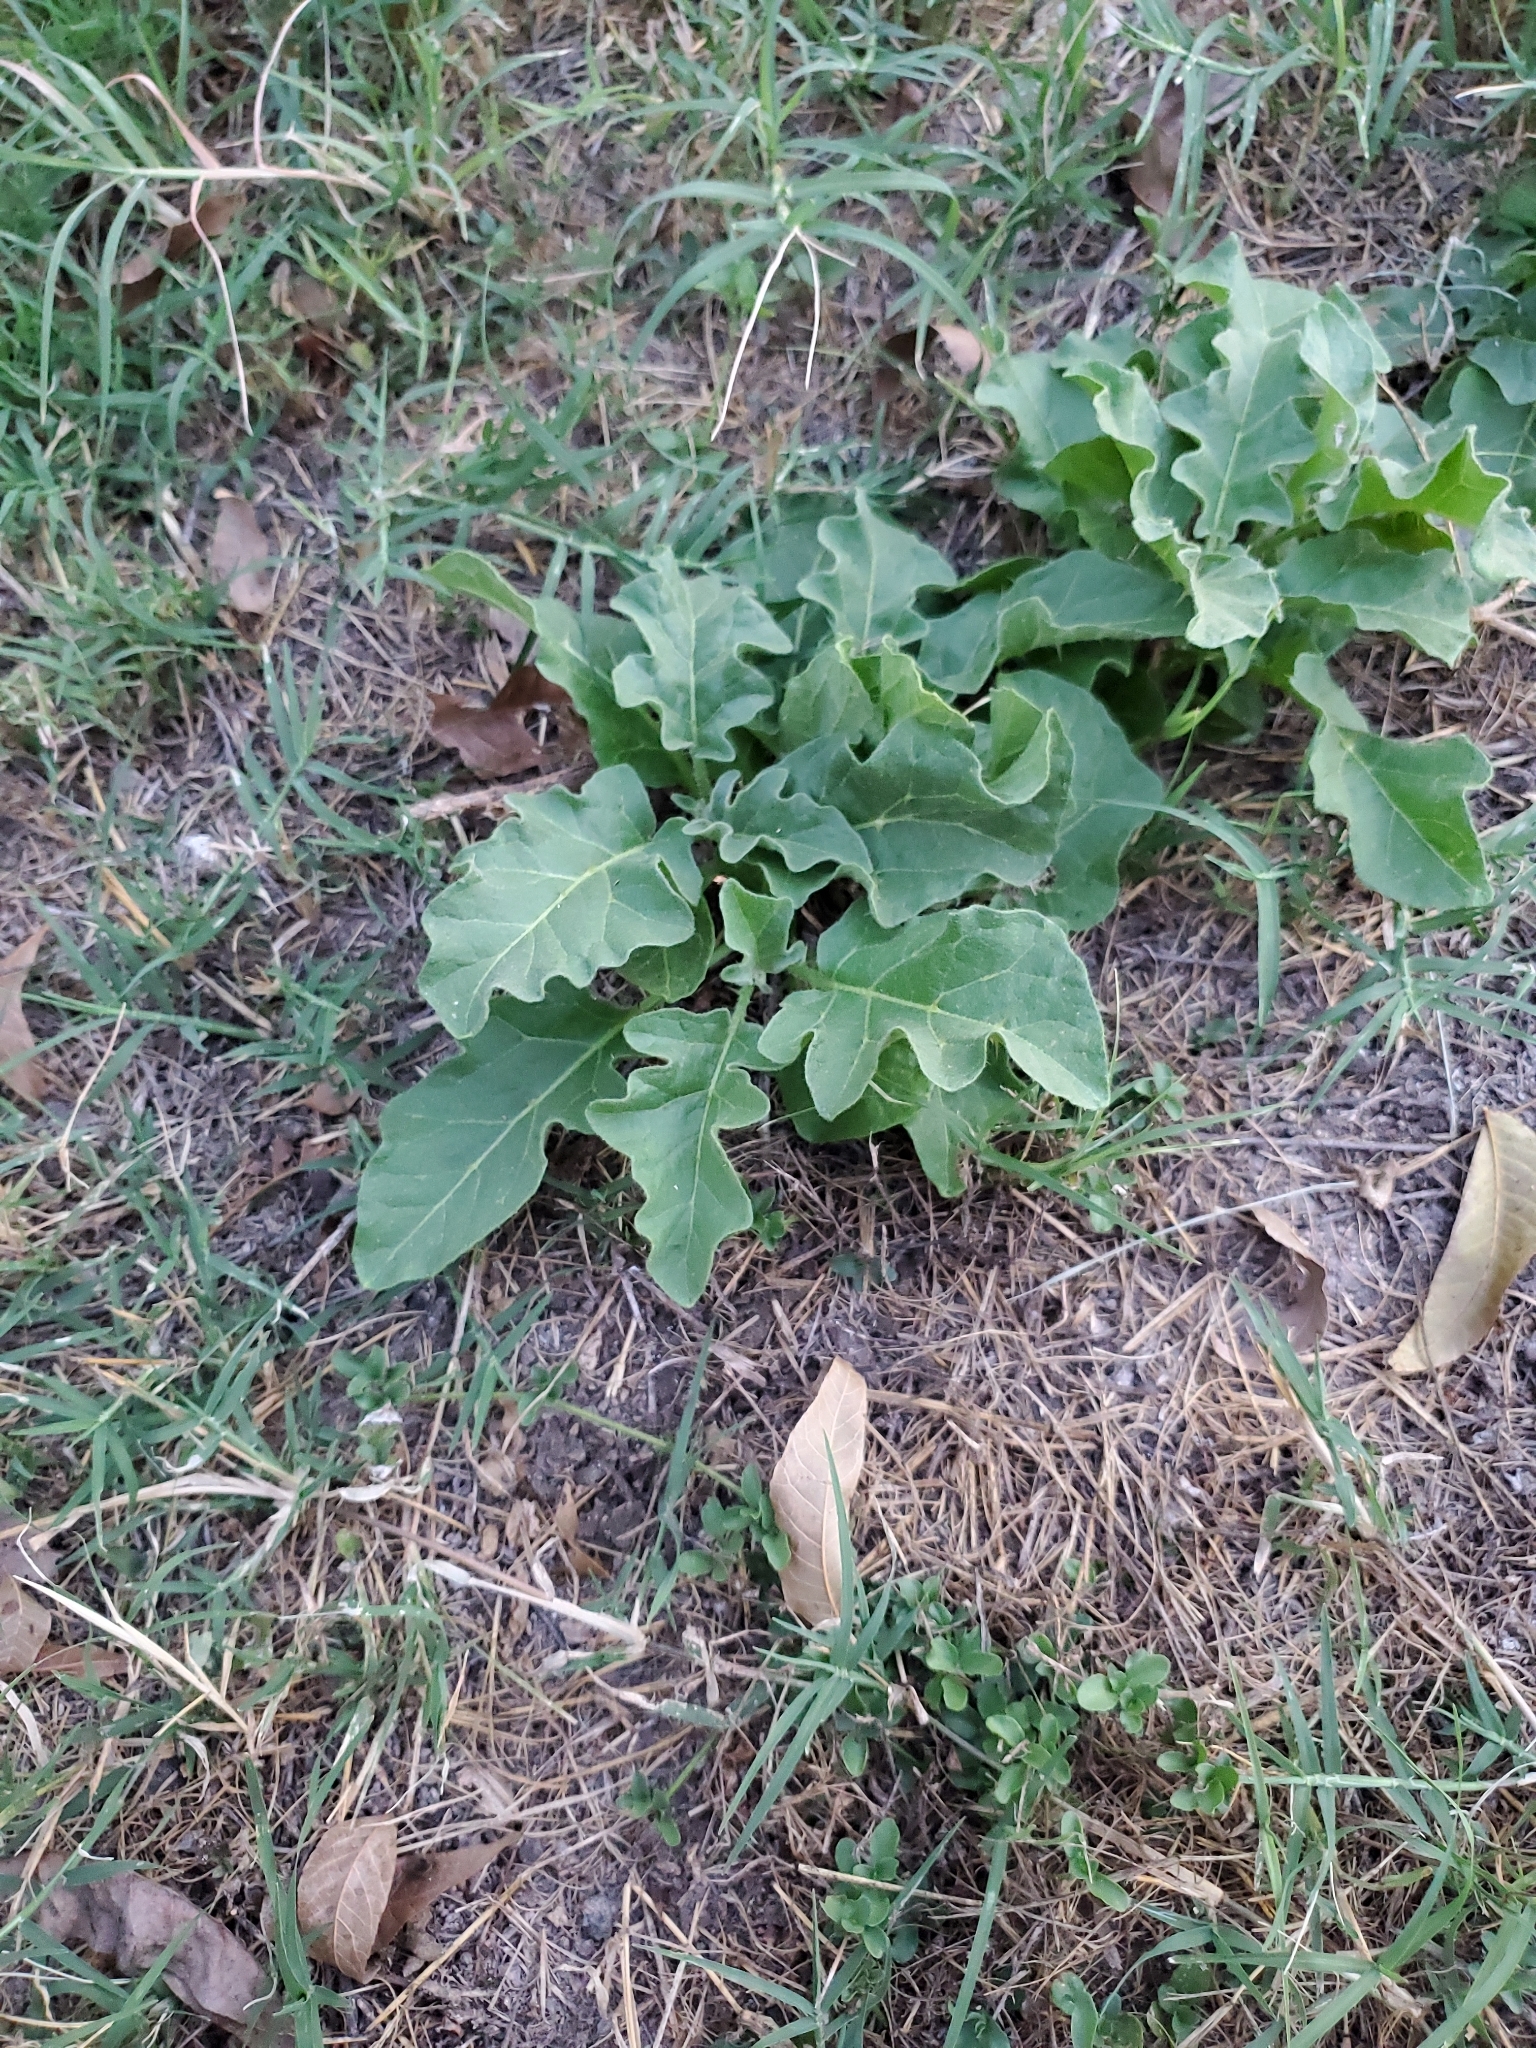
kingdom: Plantae
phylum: Tracheophyta
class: Magnoliopsida
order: Solanales
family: Solanaceae
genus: Solanum
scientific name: Solanum dimidiatum
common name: Carolina horse-nettle
